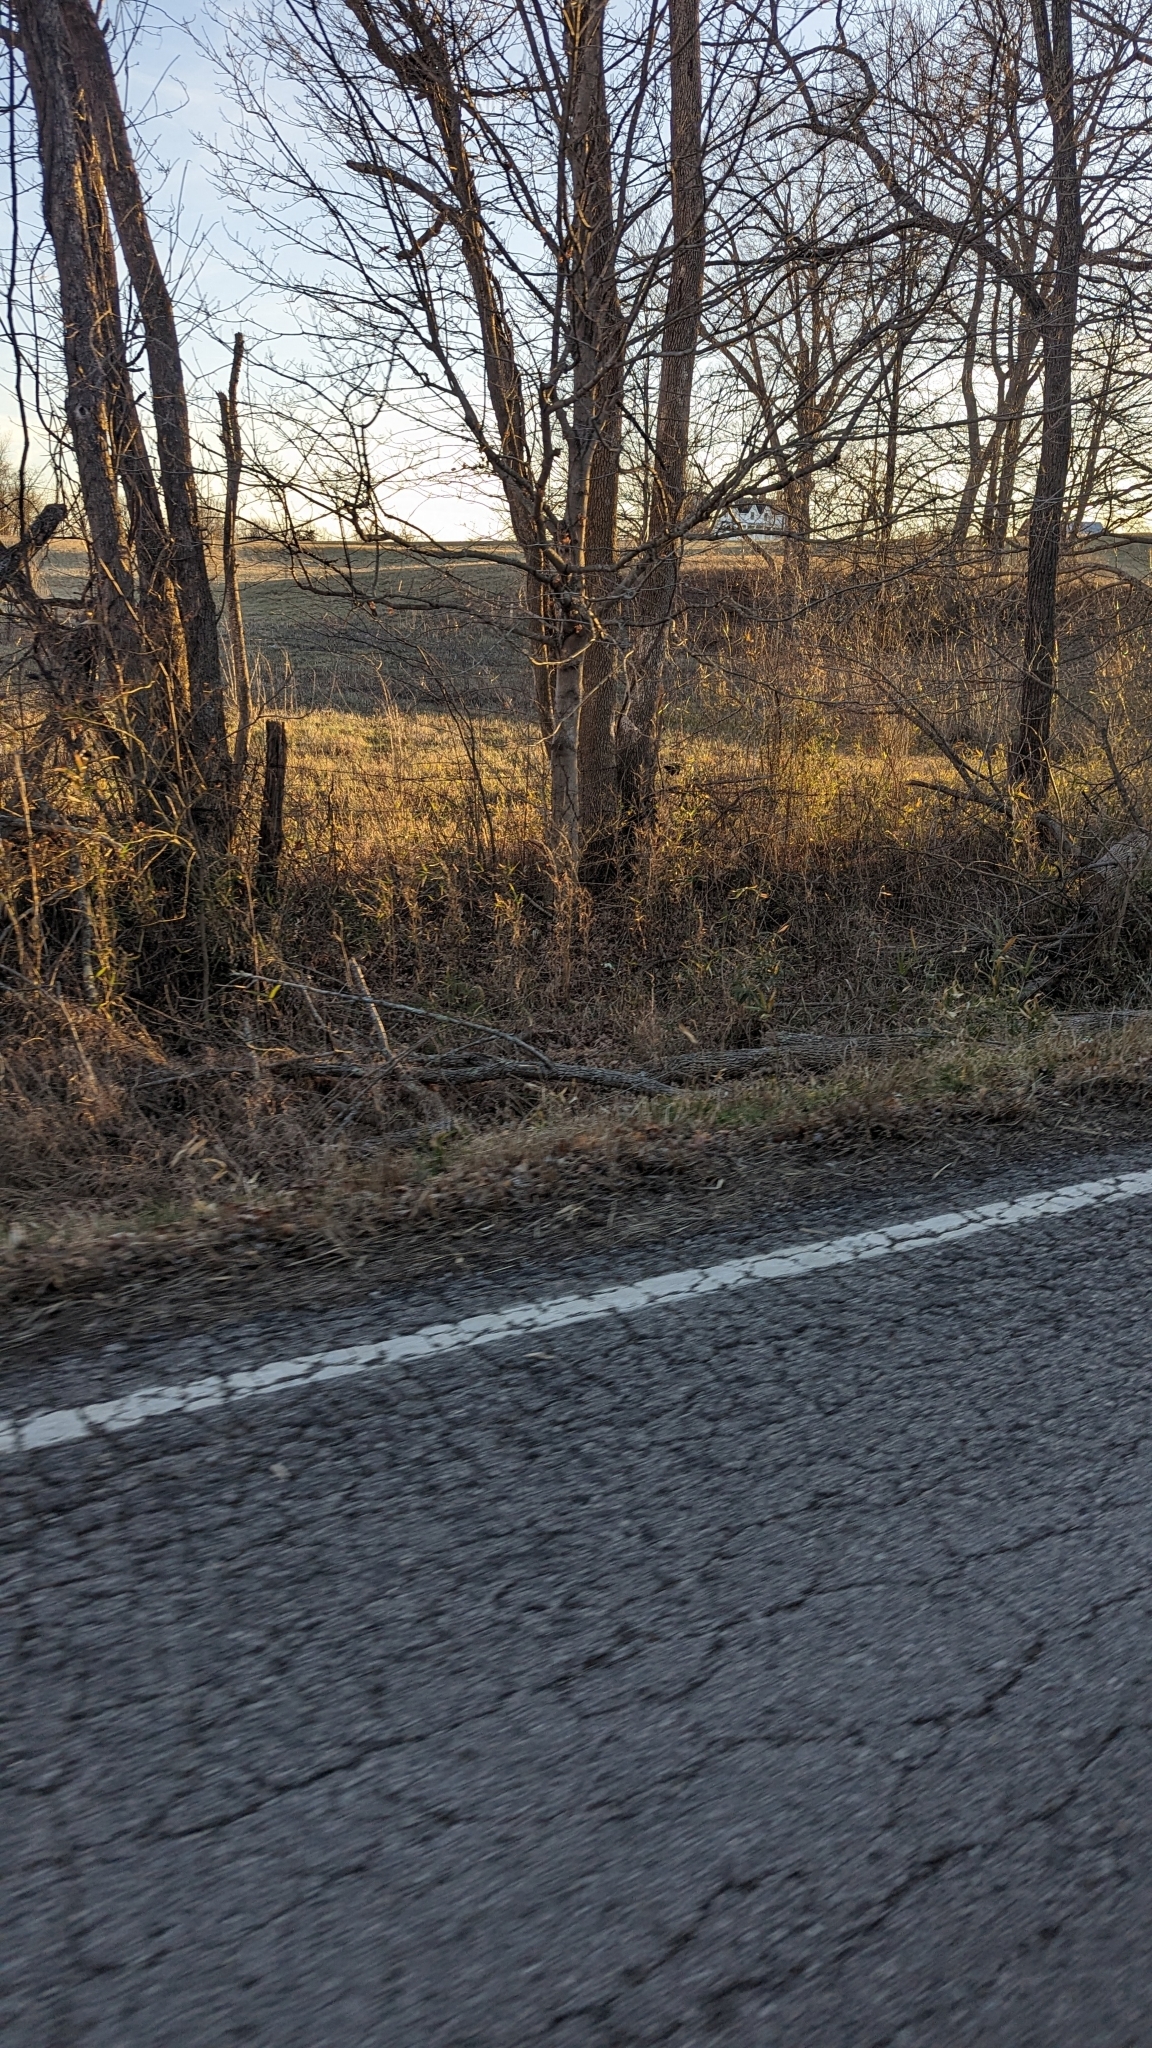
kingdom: Plantae
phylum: Tracheophyta
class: Liliopsida
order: Poales
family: Poaceae
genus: Arundinaria
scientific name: Arundinaria gigantea
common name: Giant cane
